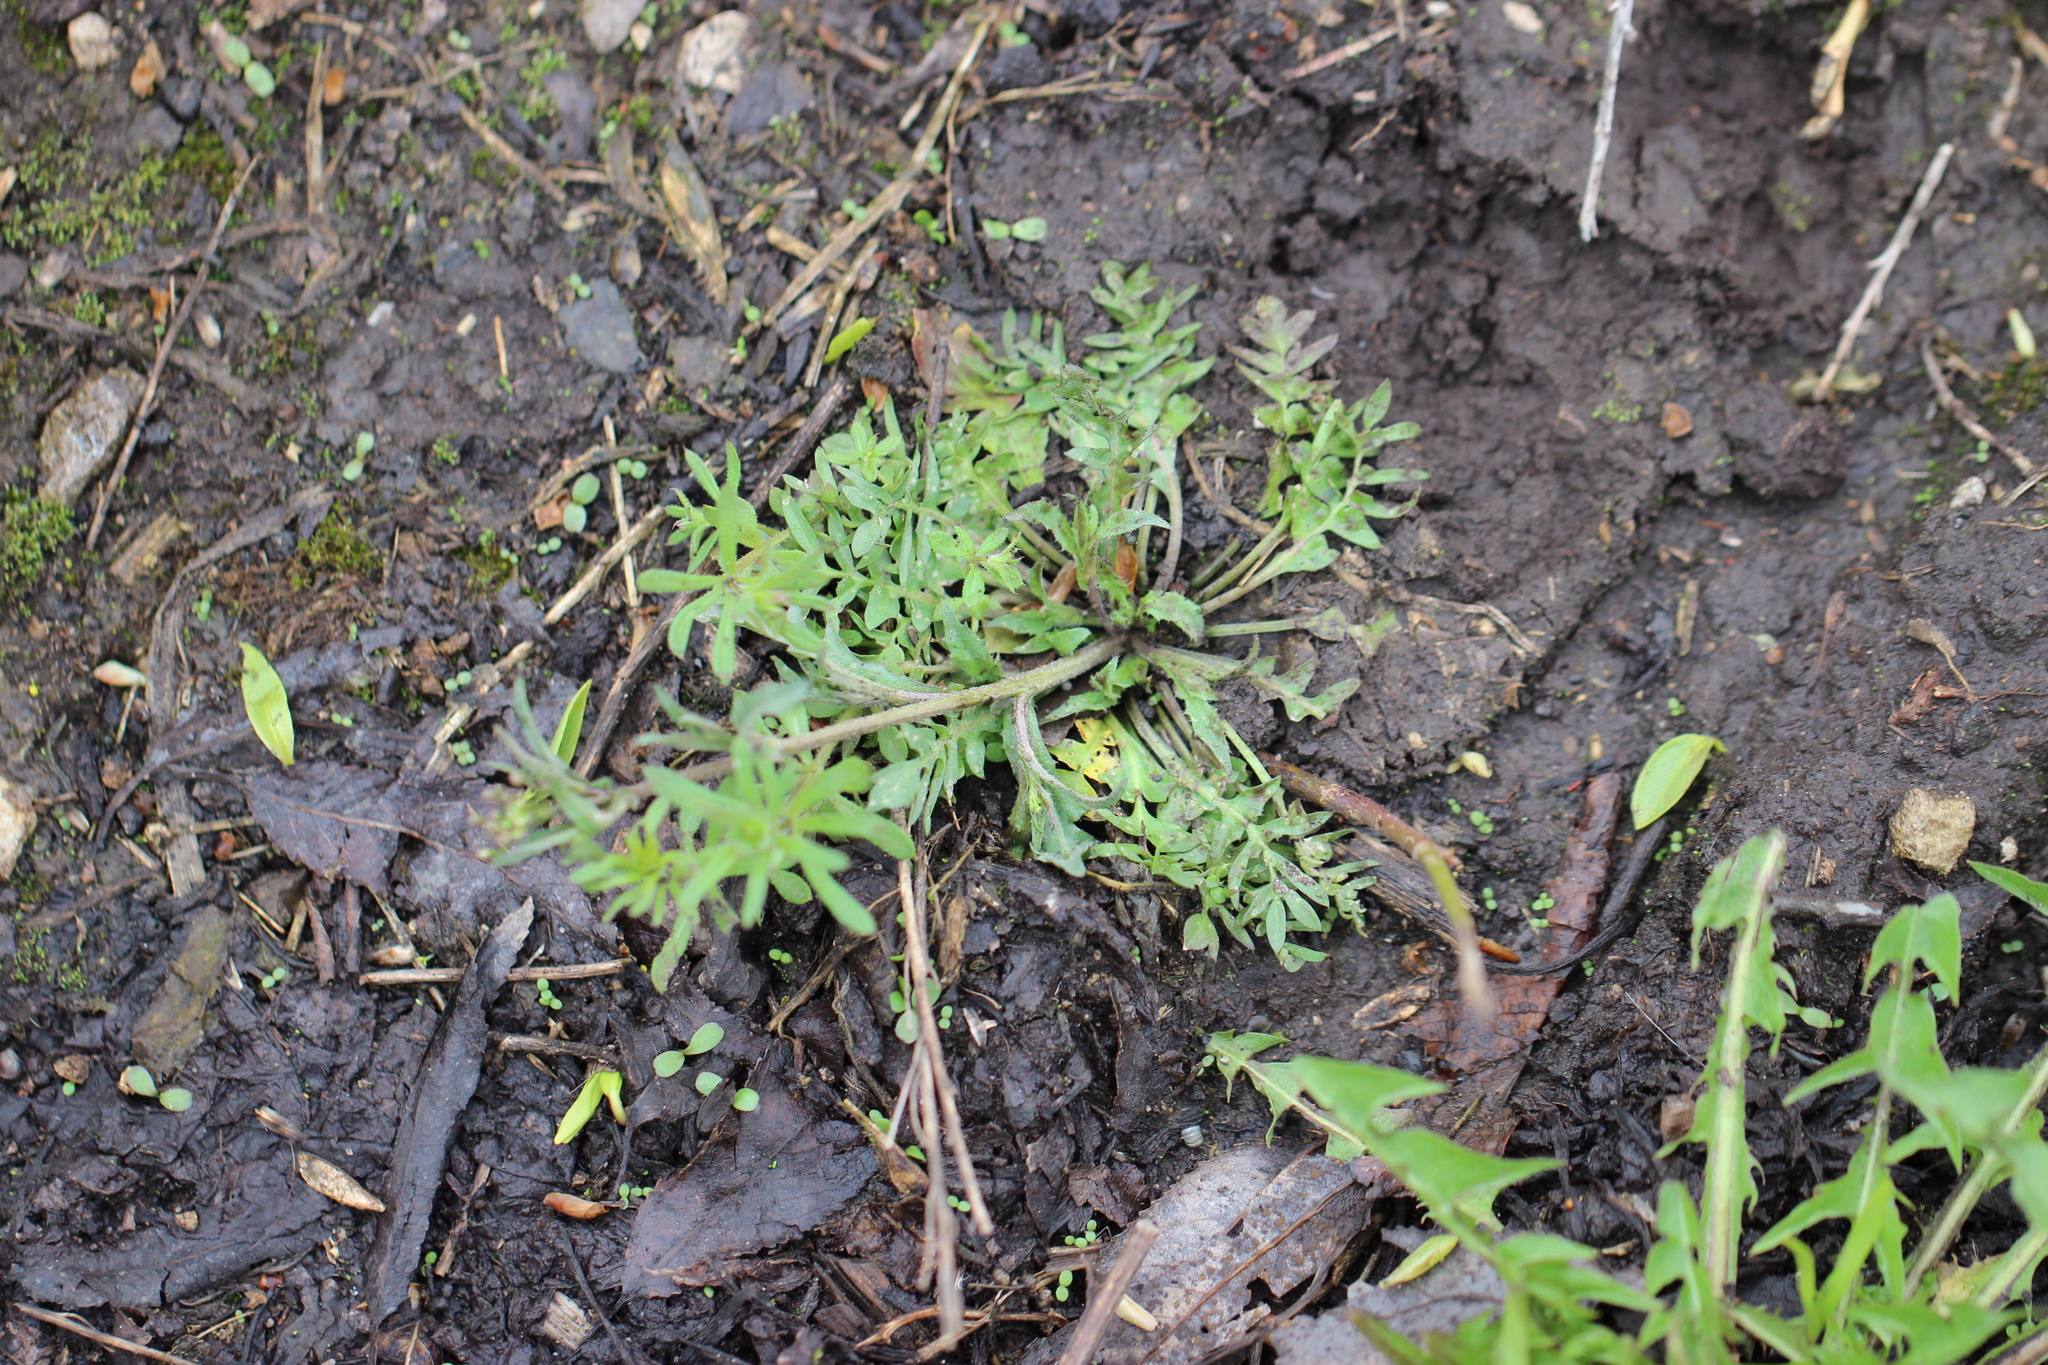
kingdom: Plantae
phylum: Tracheophyta
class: Magnoliopsida
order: Brassicales
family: Brassicaceae
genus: Capsella
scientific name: Capsella bursa-pastoris
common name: Shepherd's purse
